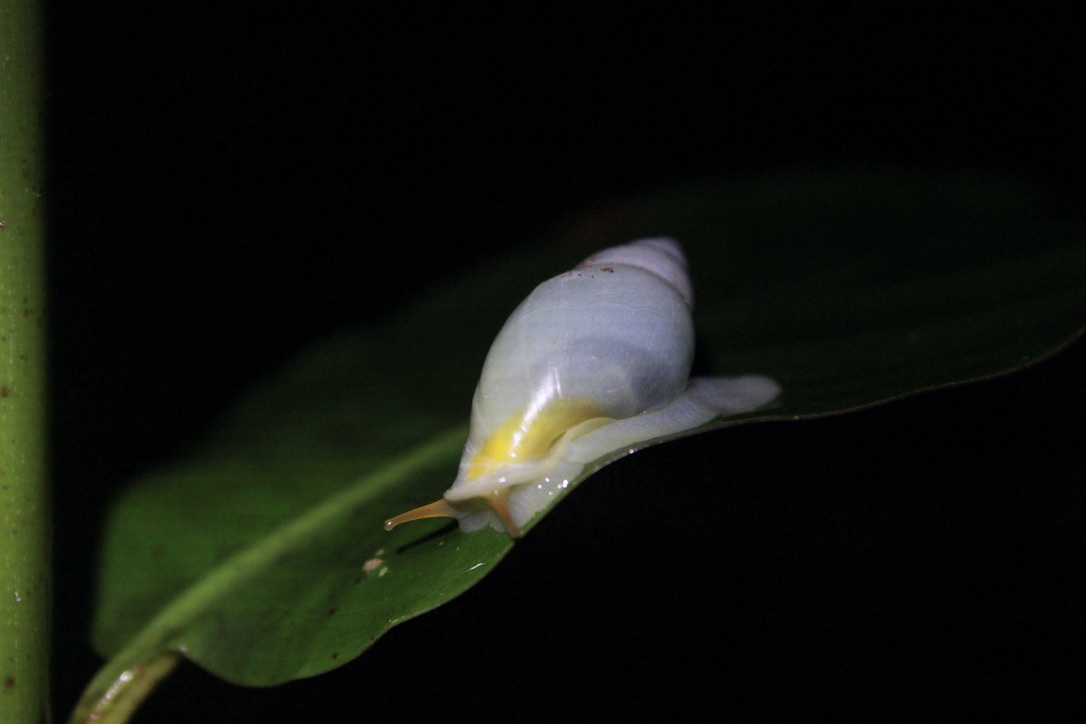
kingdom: Animalia
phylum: Mollusca
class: Gastropoda
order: Stylommatophora
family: Bulimulidae
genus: Drymaeus
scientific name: Drymaeus
